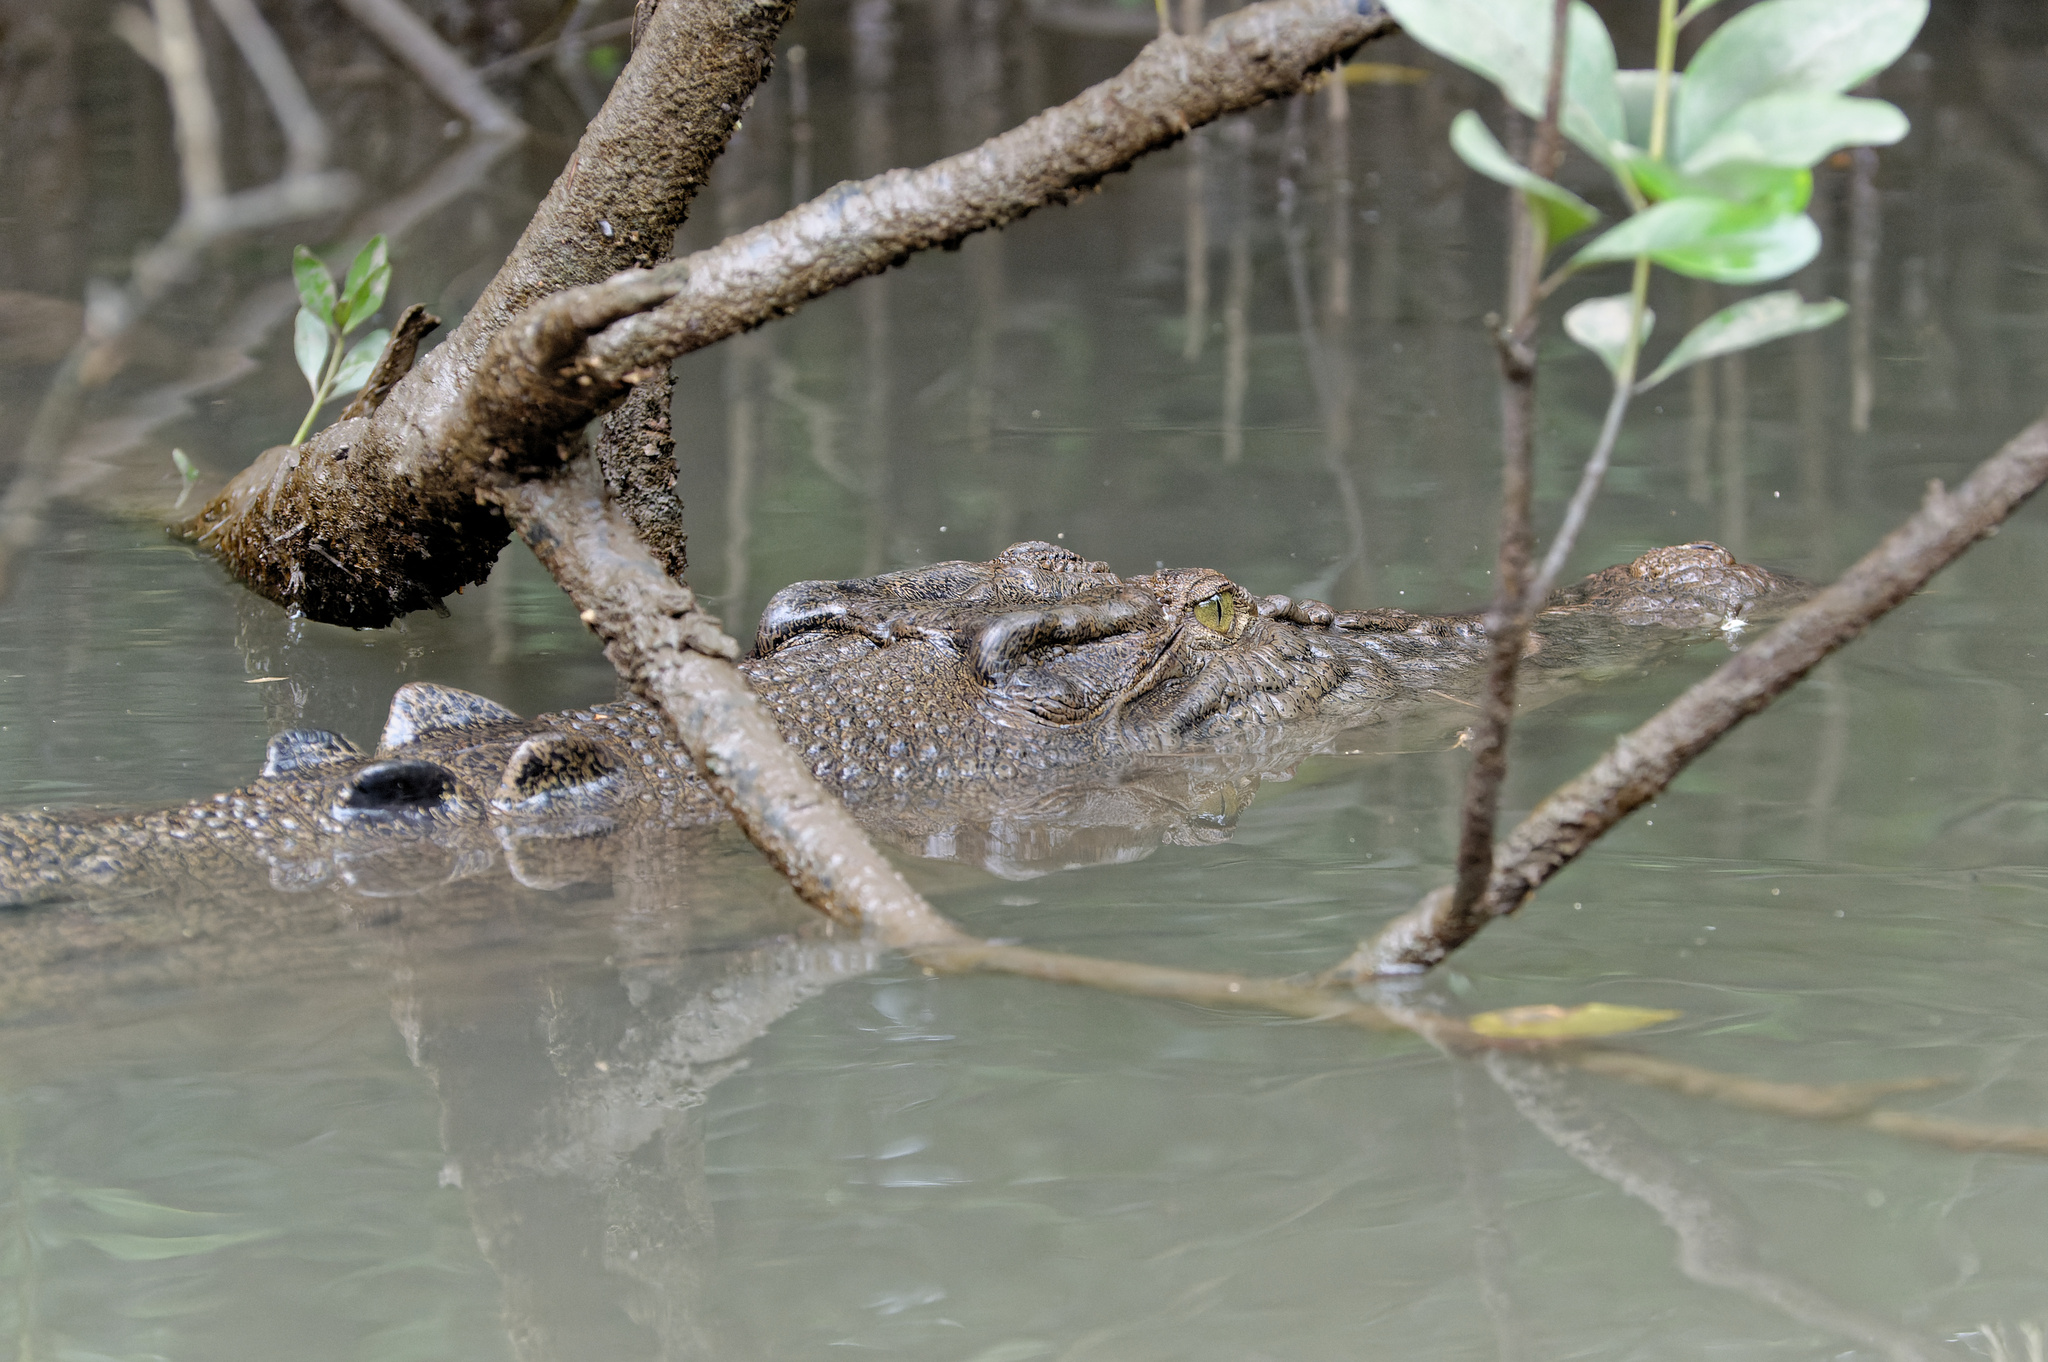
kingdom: Animalia
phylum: Chordata
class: Crocodylia
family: Crocodylidae
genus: Crocodylus
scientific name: Crocodylus porosus
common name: Saltwater crocodile
